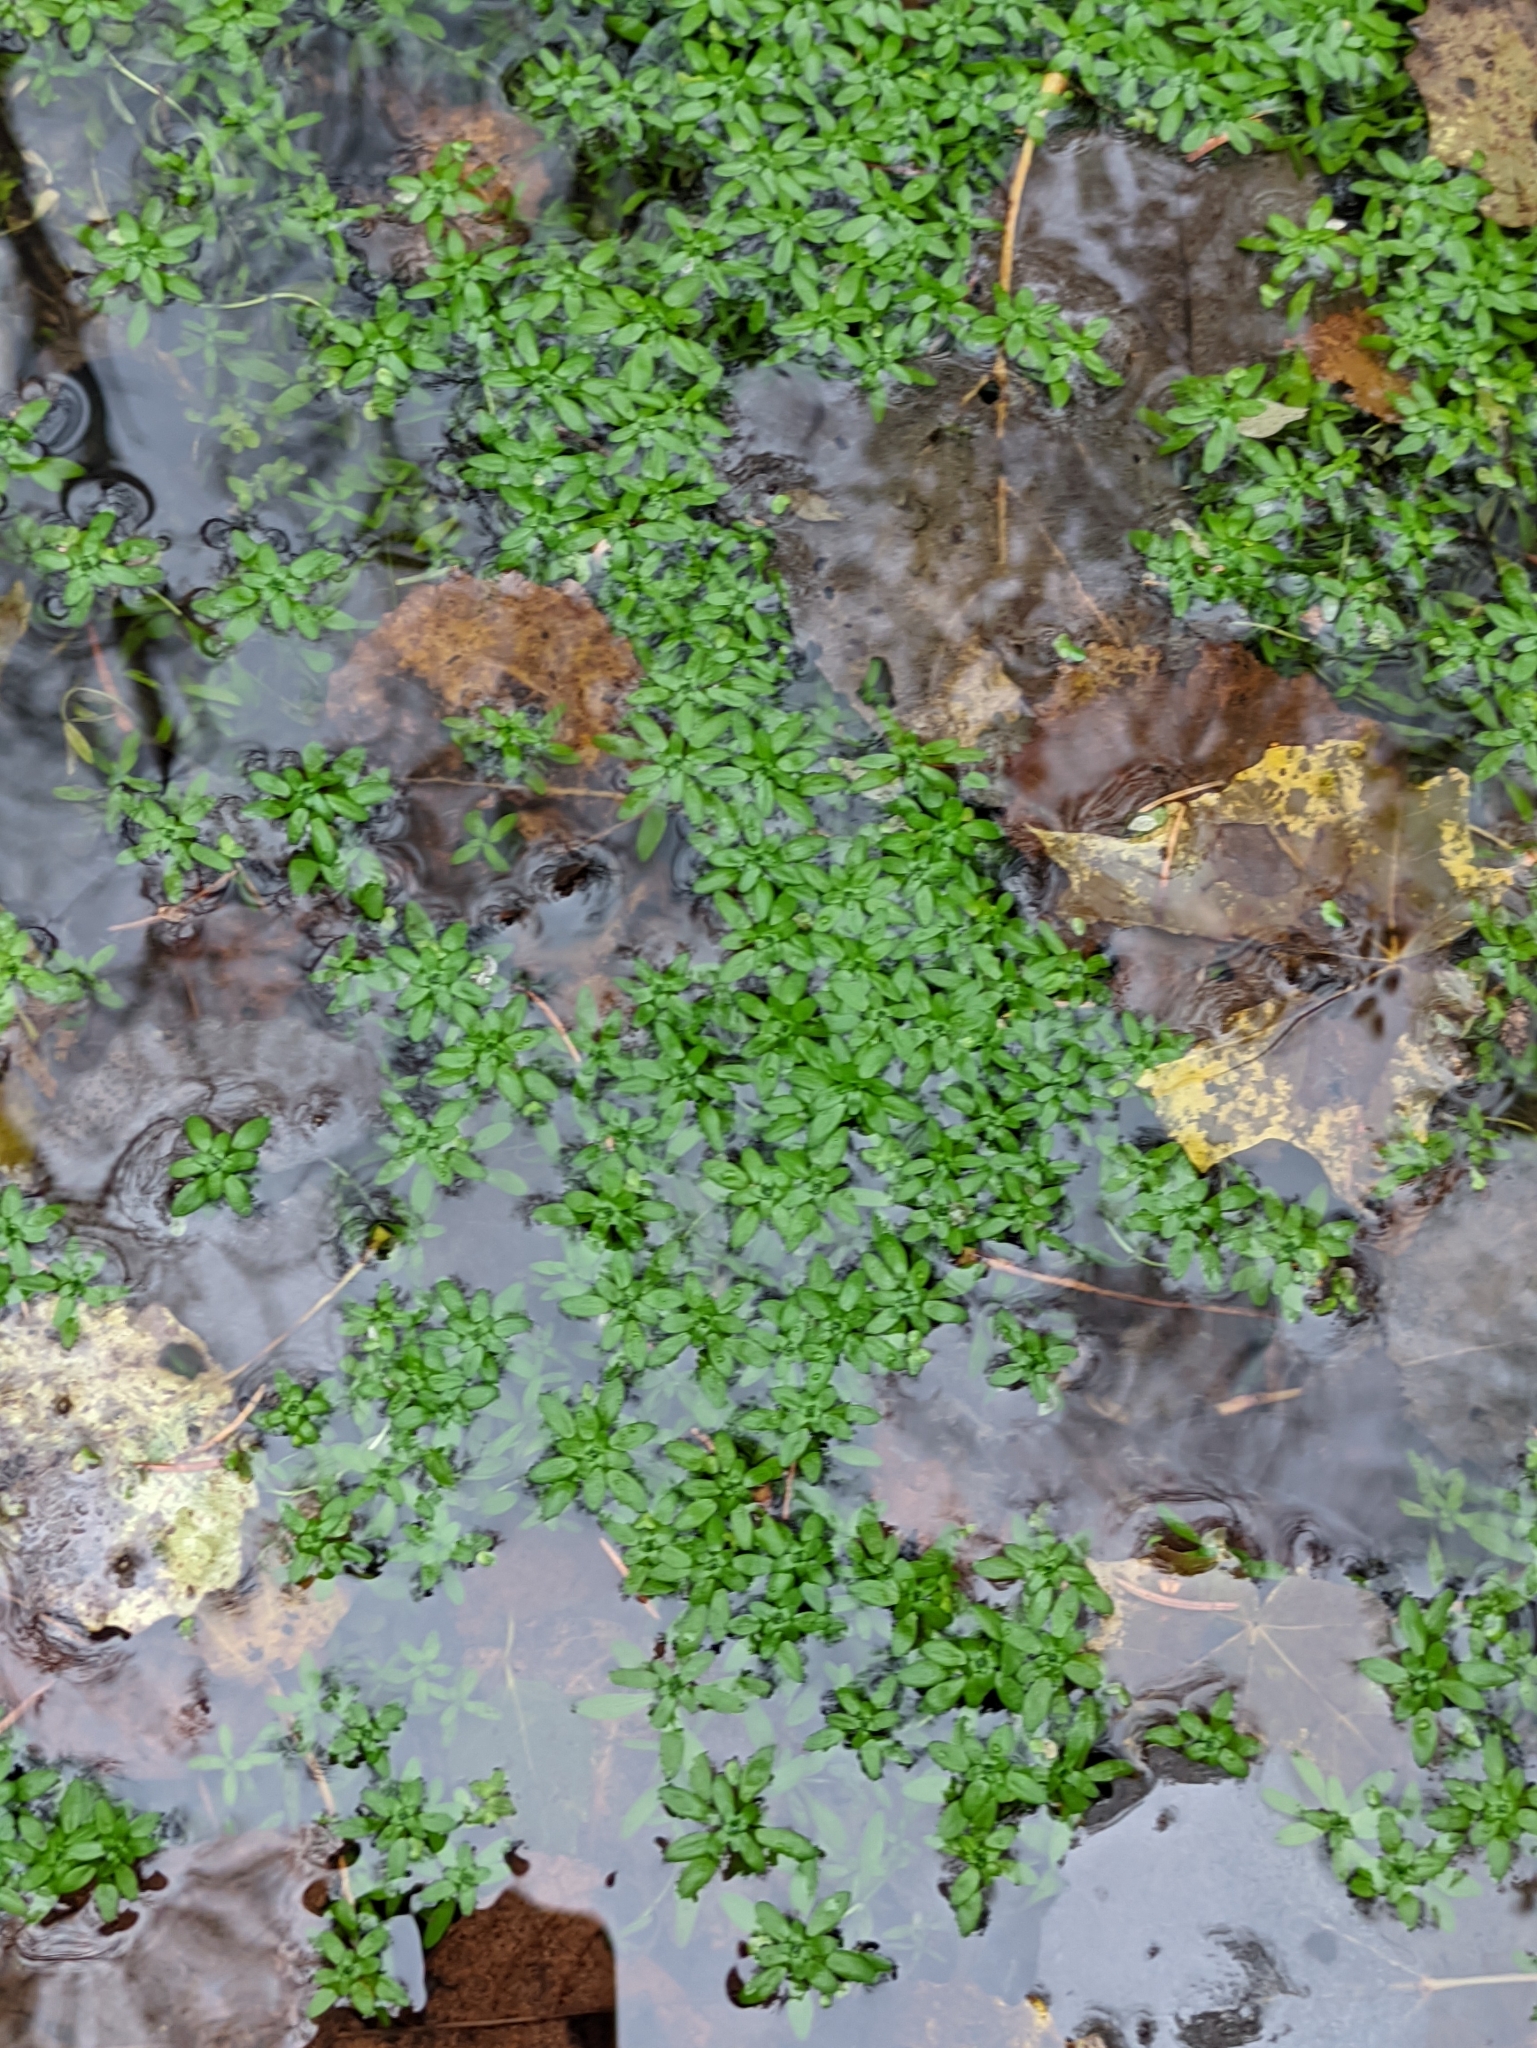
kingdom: Plantae
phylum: Tracheophyta
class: Magnoliopsida
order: Lamiales
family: Plantaginaceae
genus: Callitriche
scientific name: Callitriche palustris
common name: Spring water-starwort
